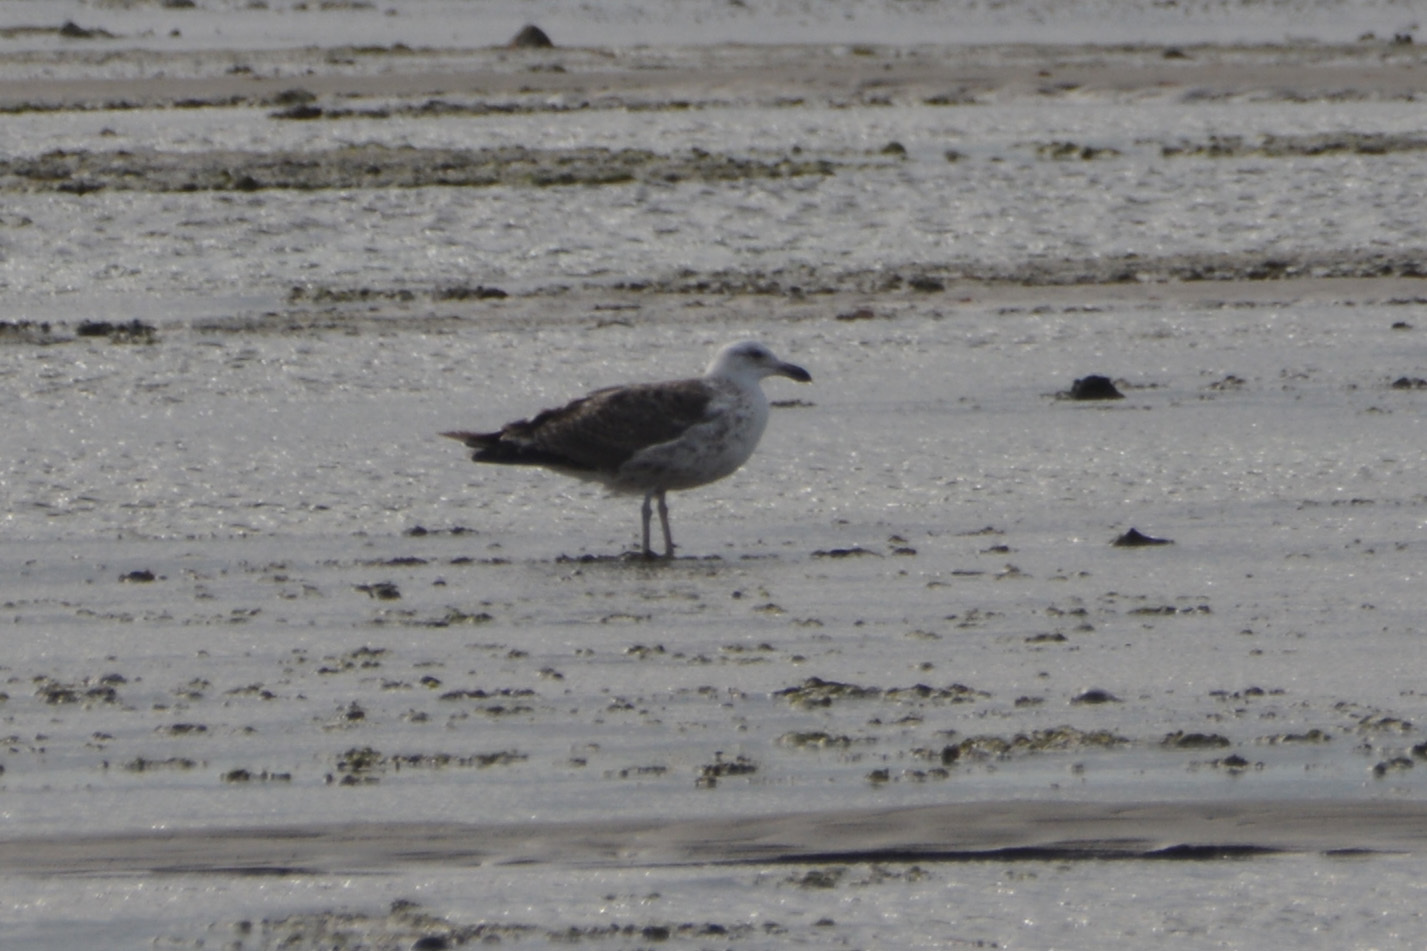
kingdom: Animalia
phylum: Chordata
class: Aves
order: Charadriiformes
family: Laridae
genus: Larus
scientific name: Larus dominicanus
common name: Kelp gull
